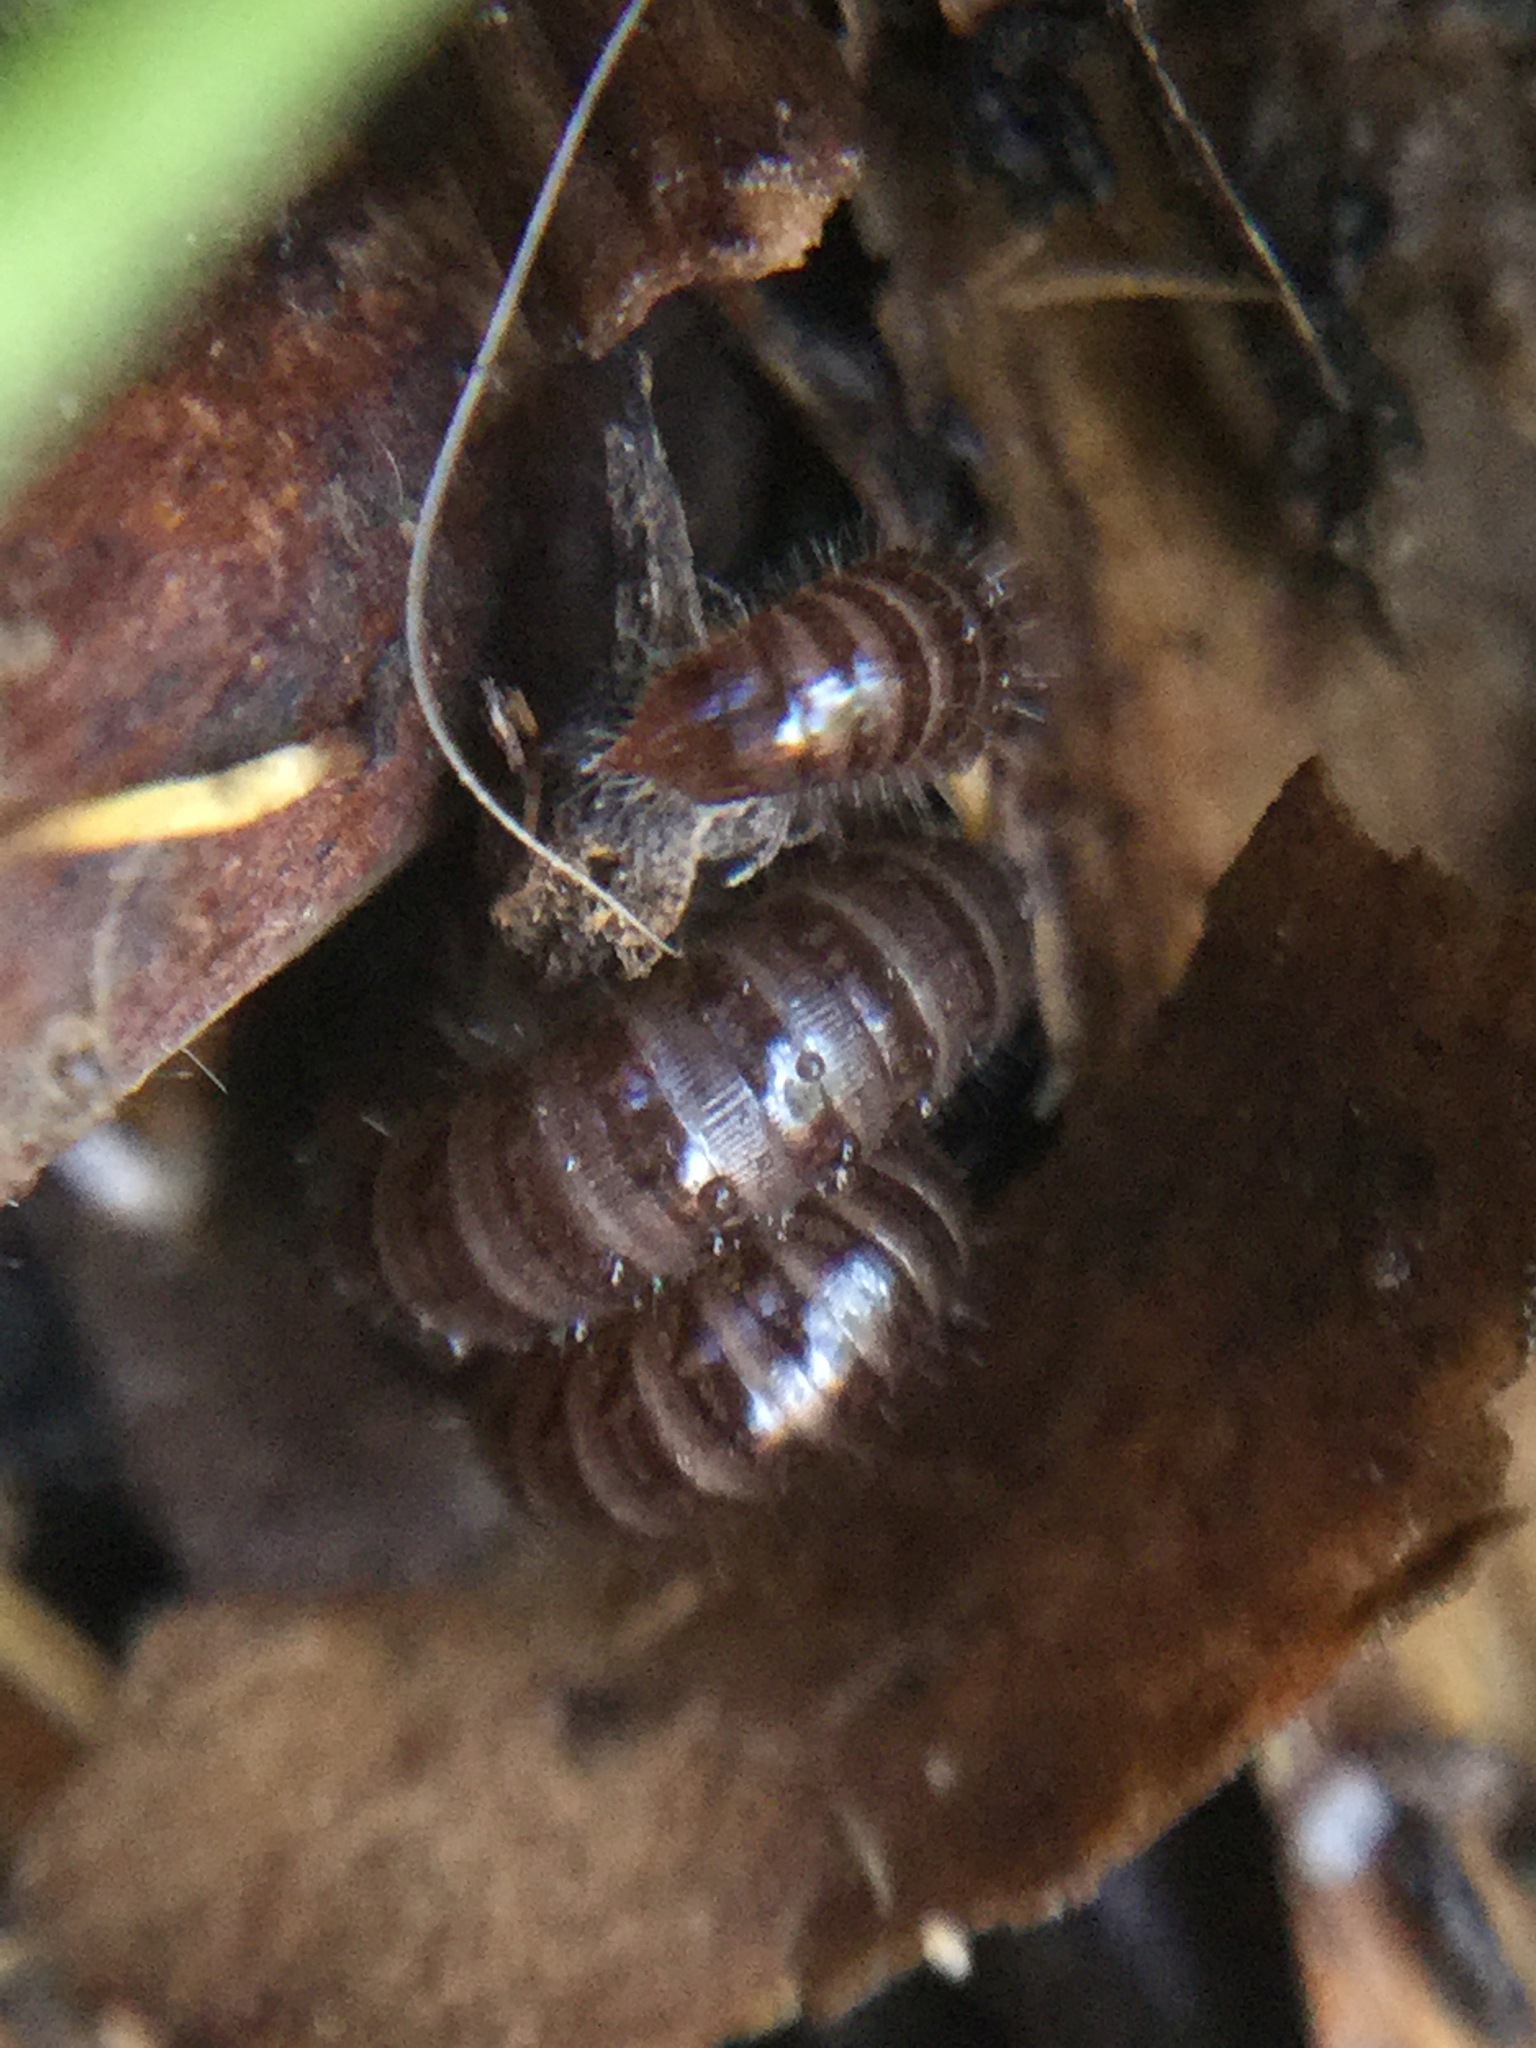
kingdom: Animalia
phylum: Arthropoda
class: Diplopoda
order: Julida
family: Julidae
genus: Ophyiulus
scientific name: Ophyiulus pilosus
